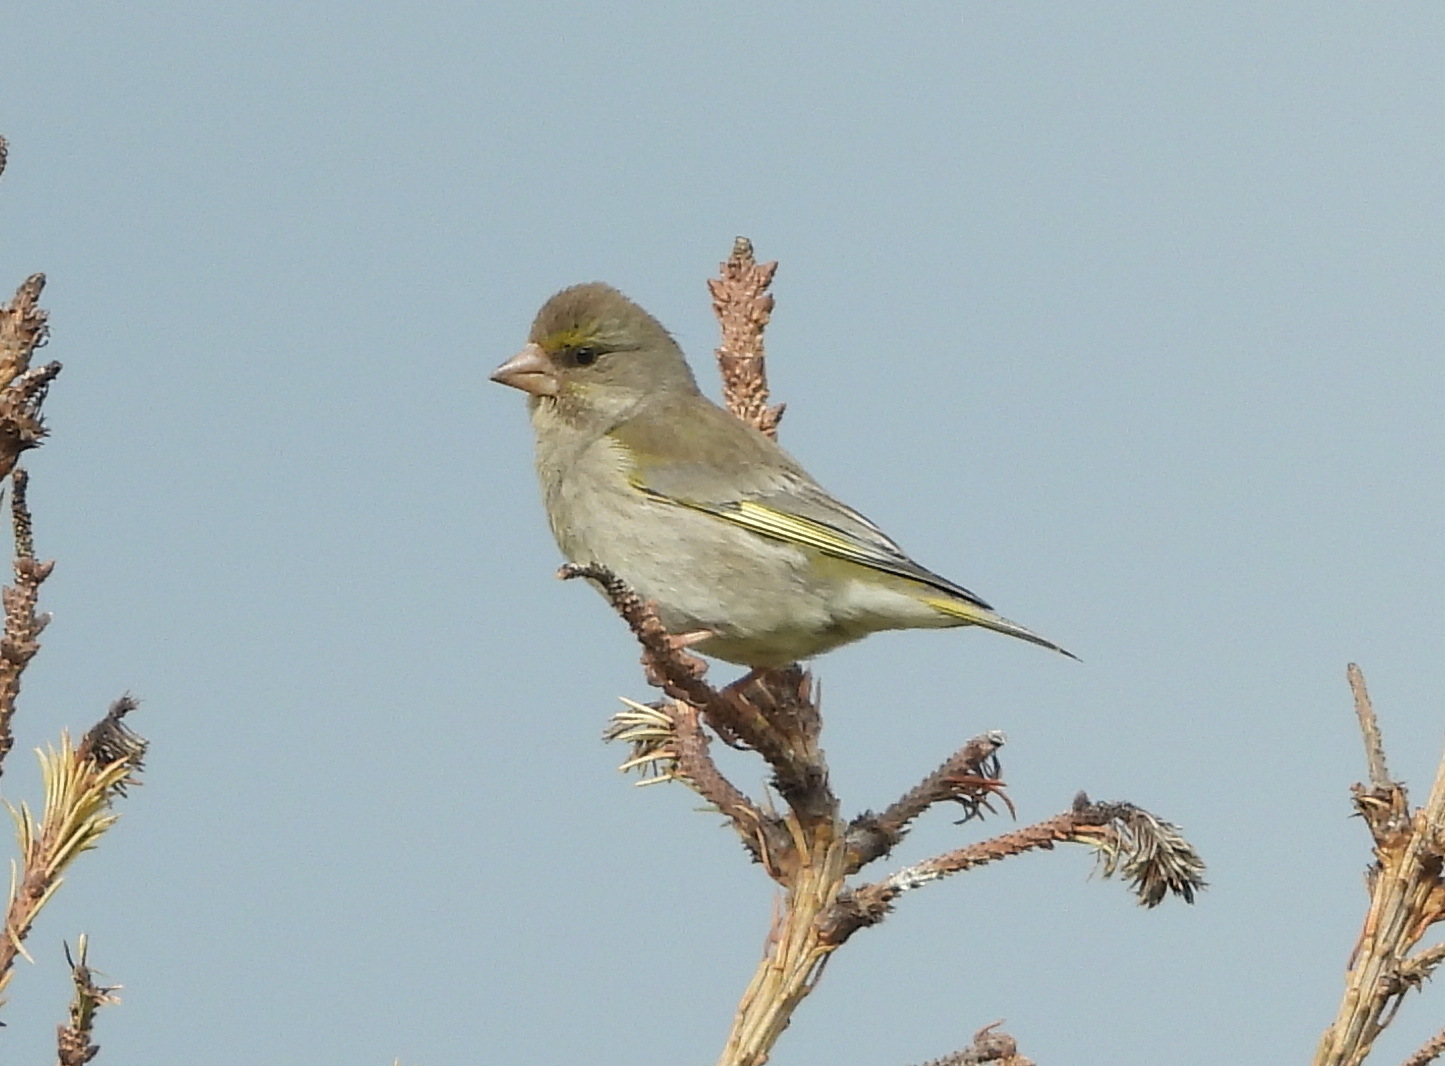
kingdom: Plantae
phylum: Tracheophyta
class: Liliopsida
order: Poales
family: Poaceae
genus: Chloris
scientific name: Chloris chloris
